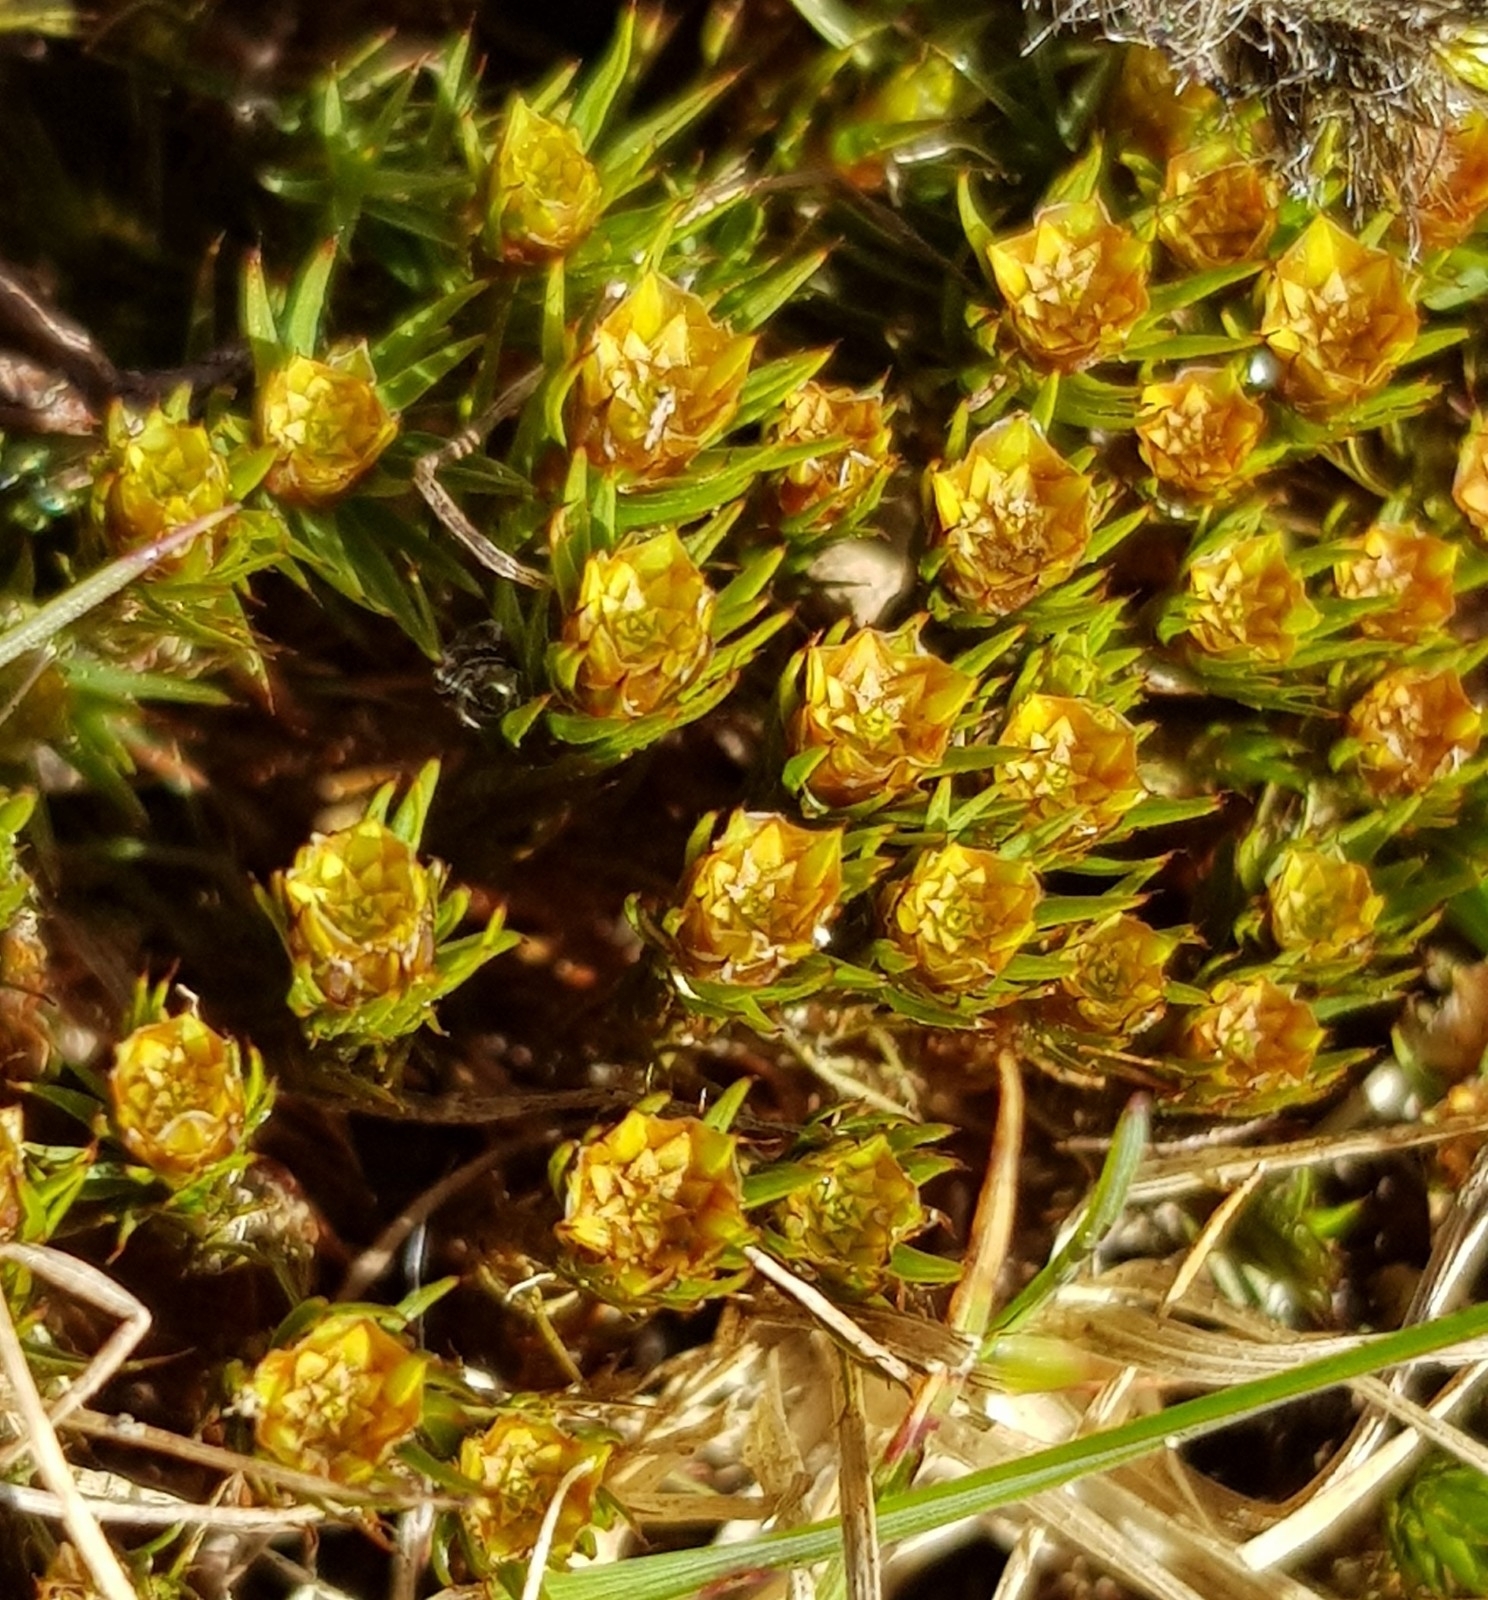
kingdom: Plantae
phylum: Bryophyta
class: Polytrichopsida
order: Polytrichales
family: Polytrichaceae
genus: Polytrichum
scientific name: Polytrichum juniperinum
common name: Juniper haircap moss
